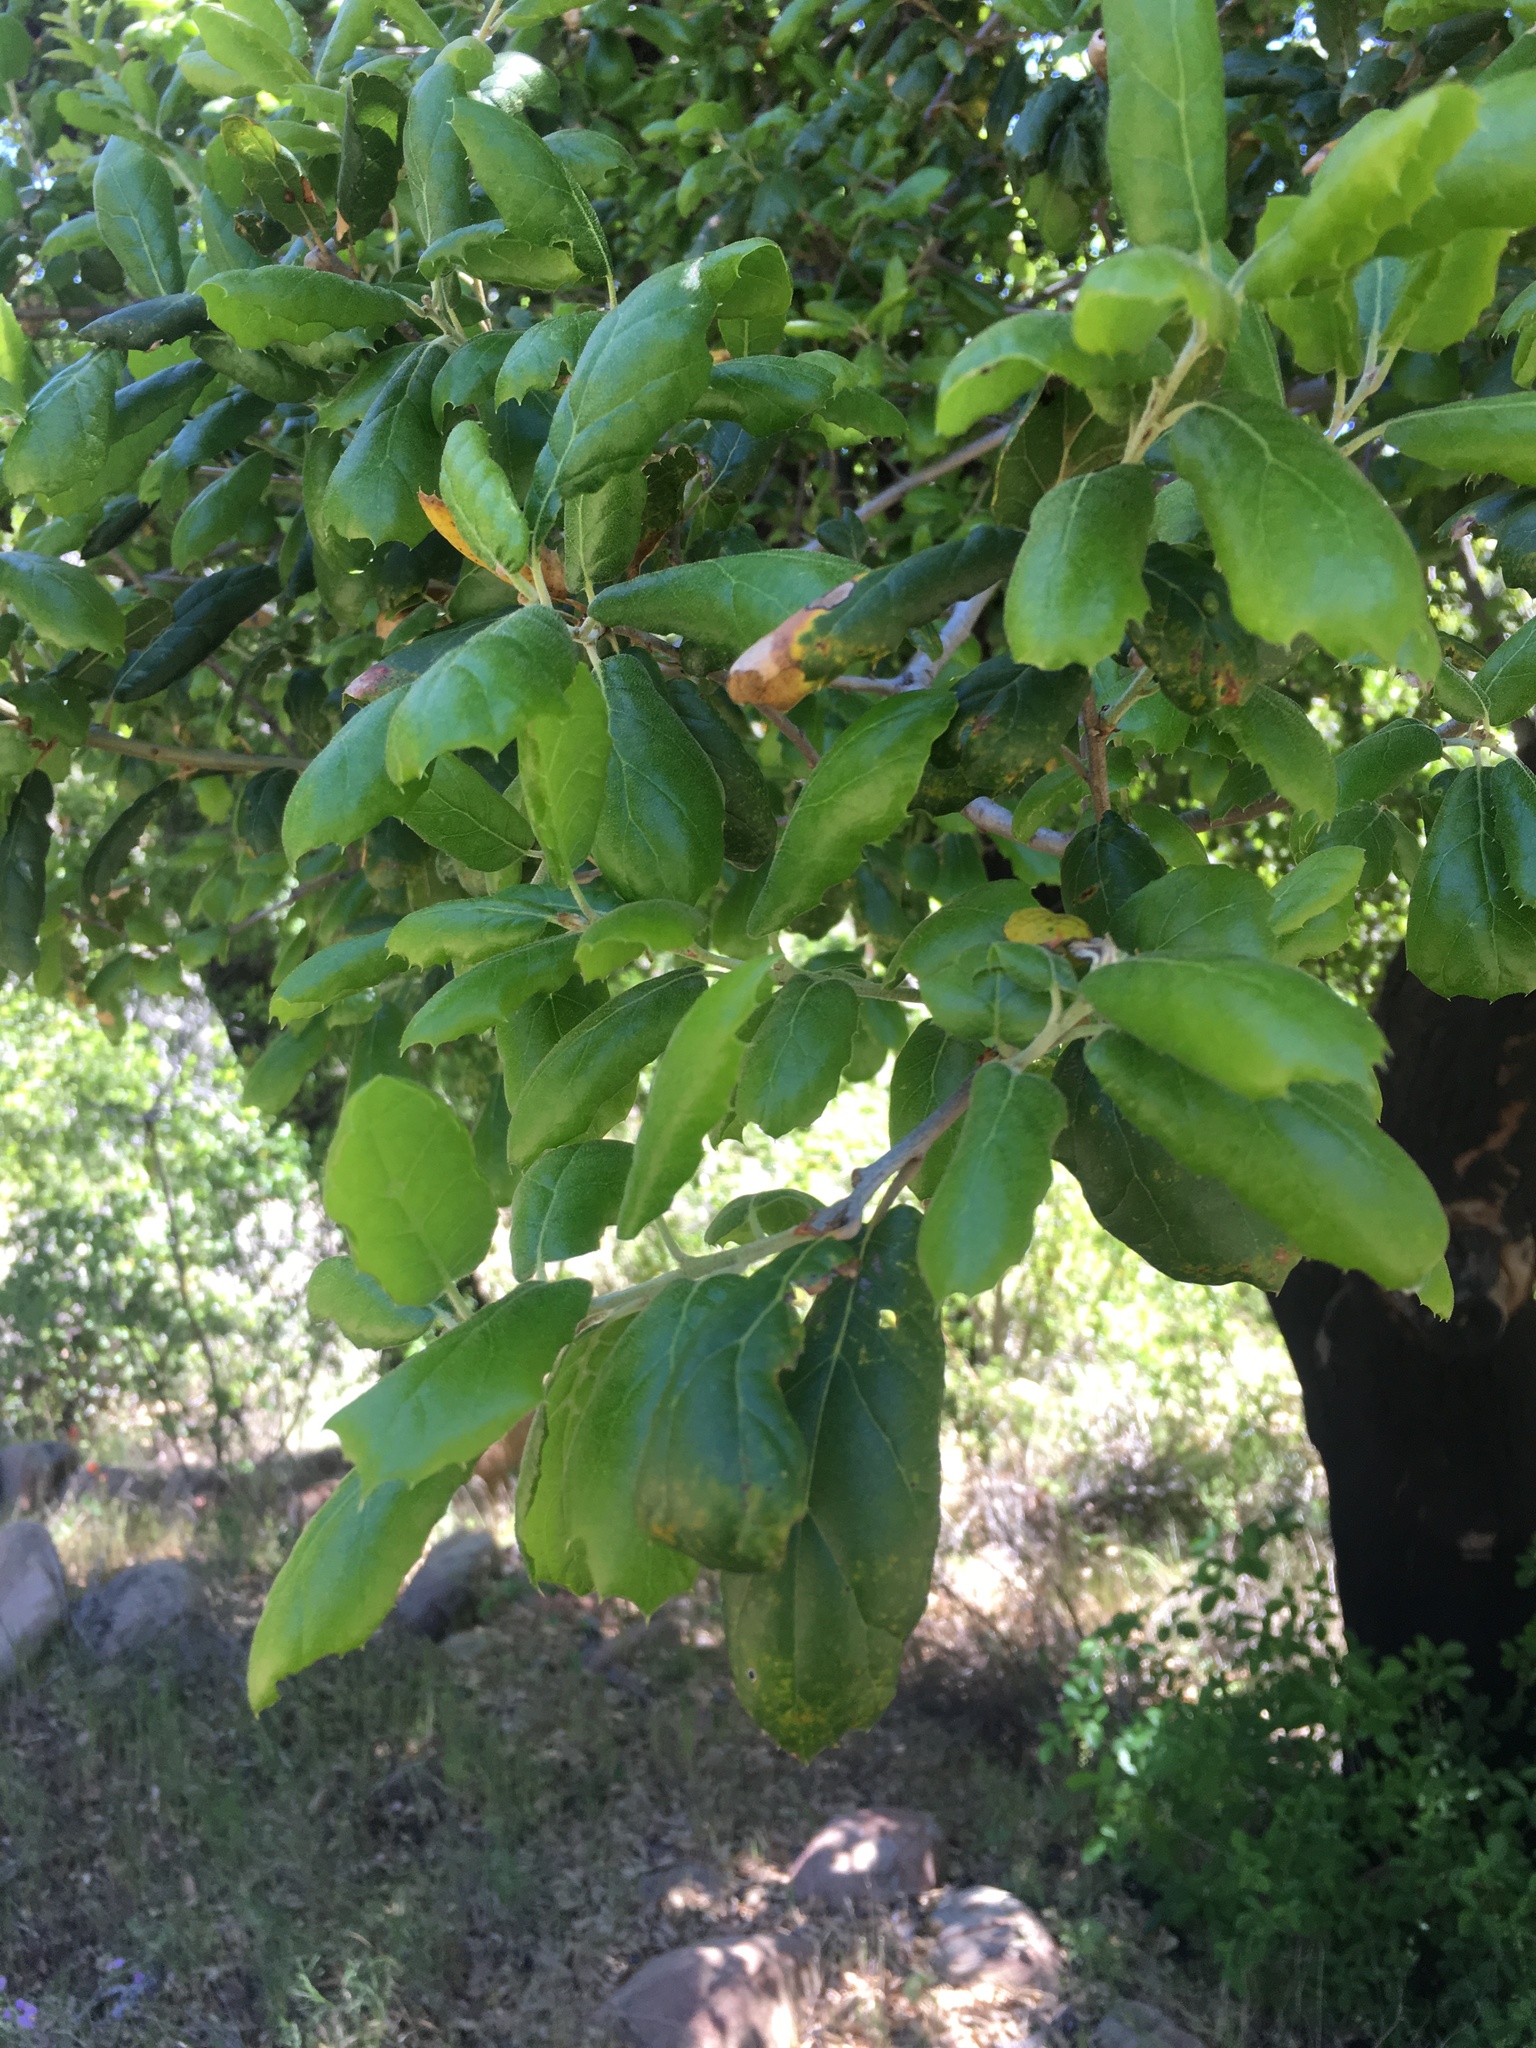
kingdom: Plantae
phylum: Tracheophyta
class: Magnoliopsida
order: Fagales
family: Fagaceae
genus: Quercus
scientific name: Quercus agrifolia
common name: California live oak
